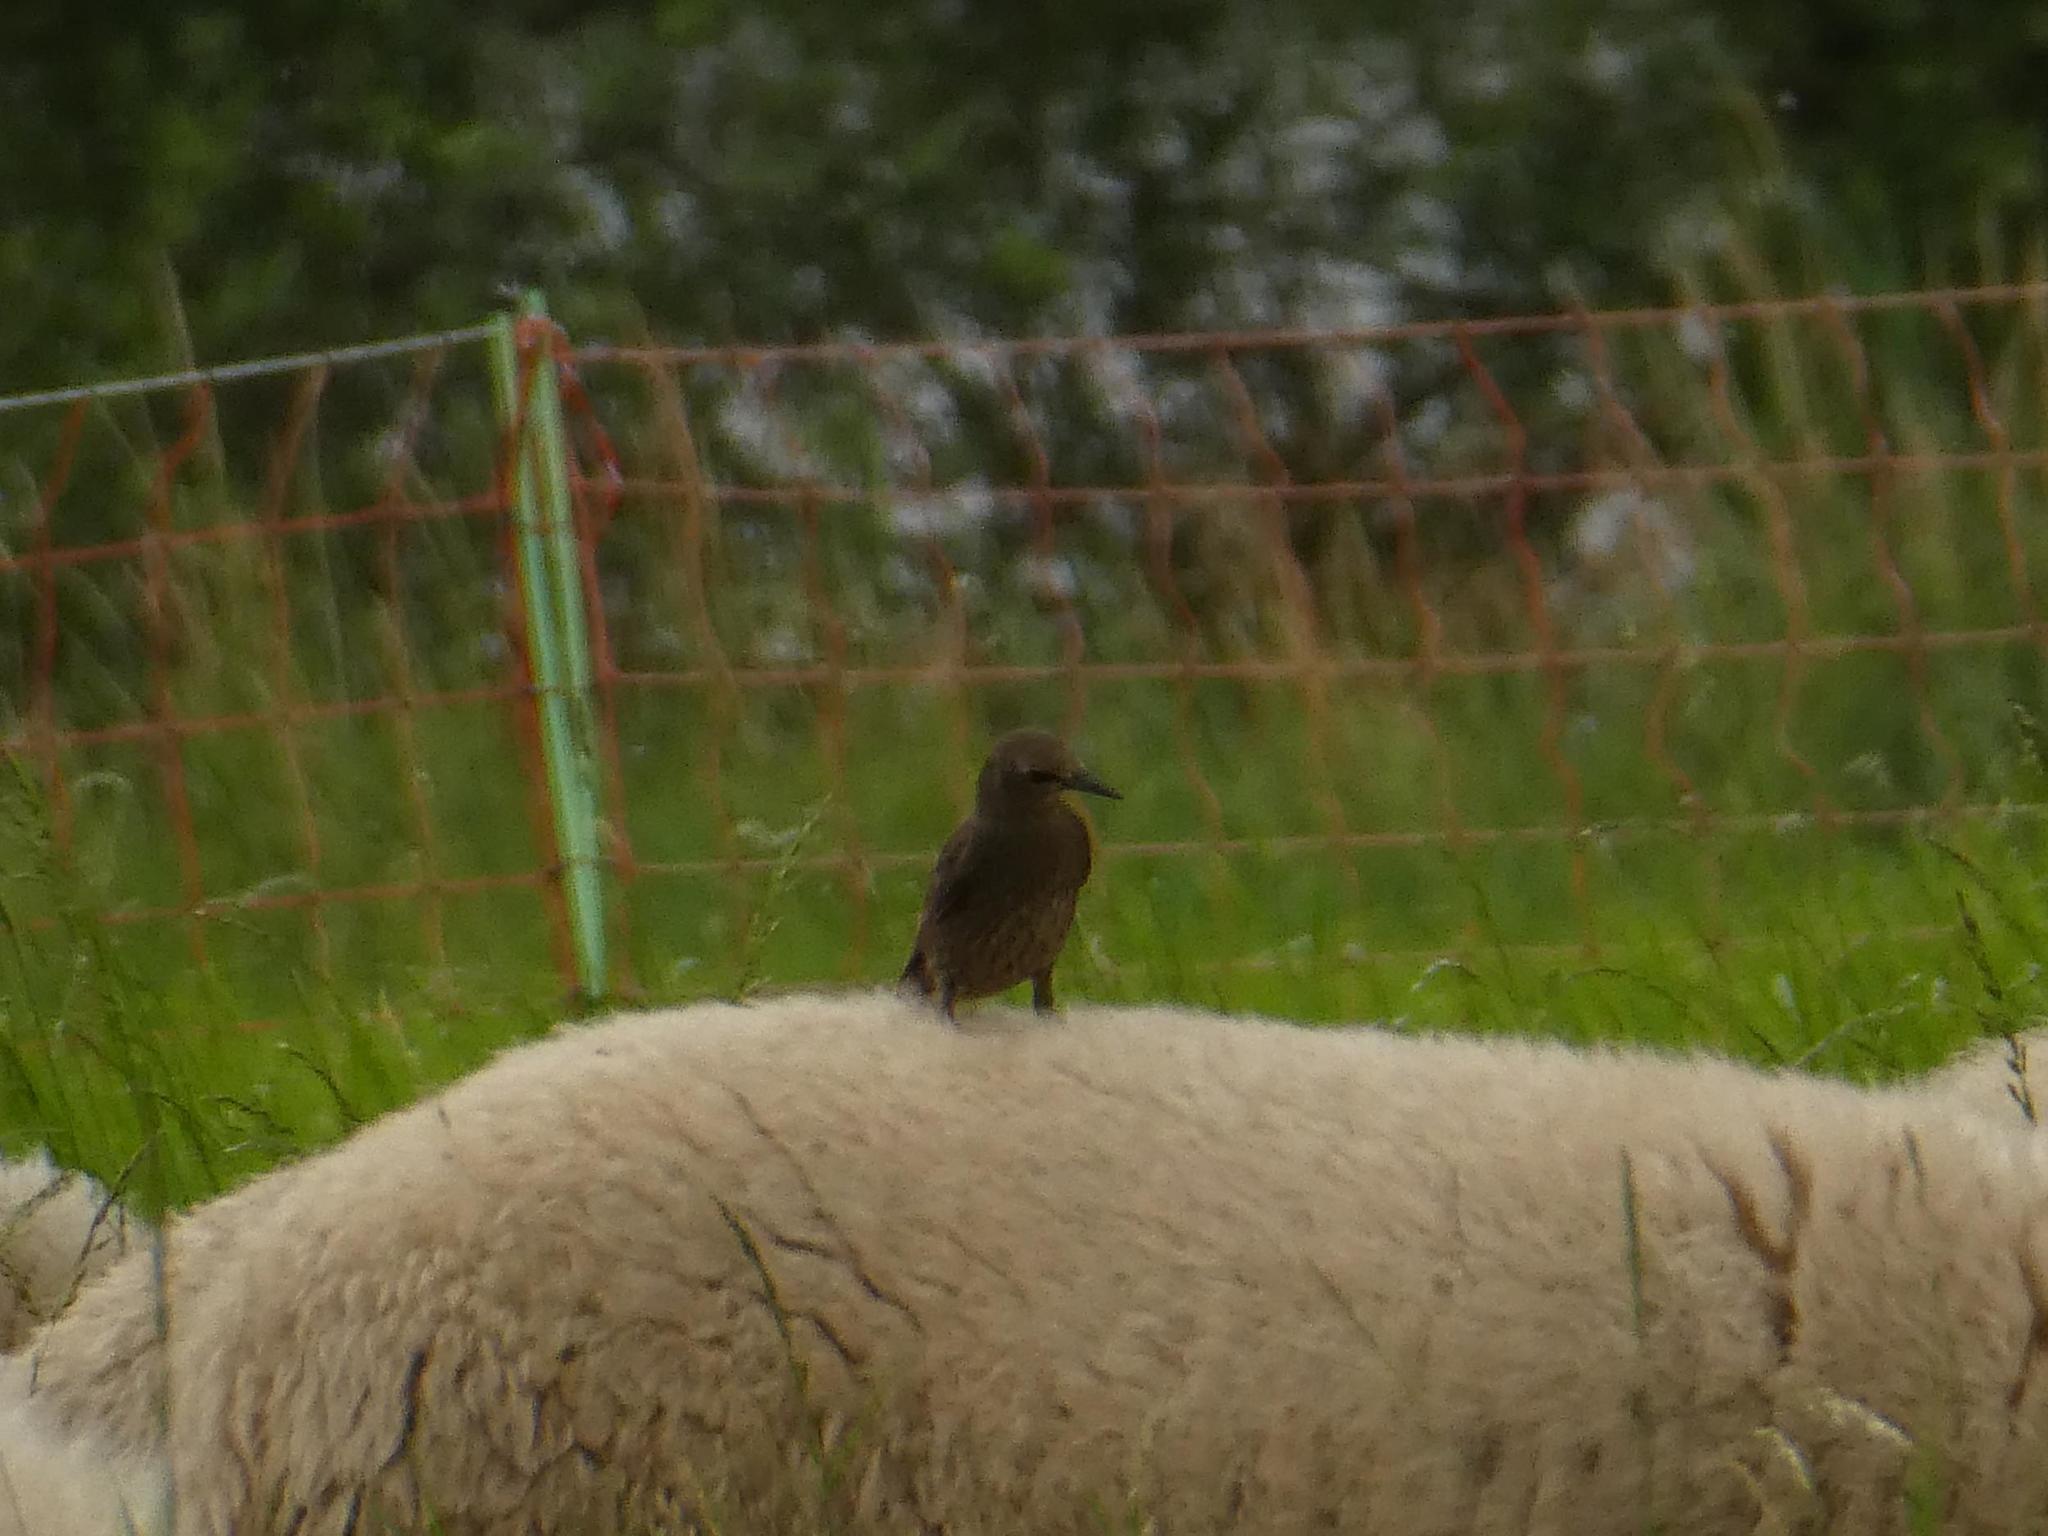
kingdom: Animalia
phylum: Chordata
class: Aves
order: Passeriformes
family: Sturnidae
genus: Sturnus
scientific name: Sturnus vulgaris
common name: Common starling
